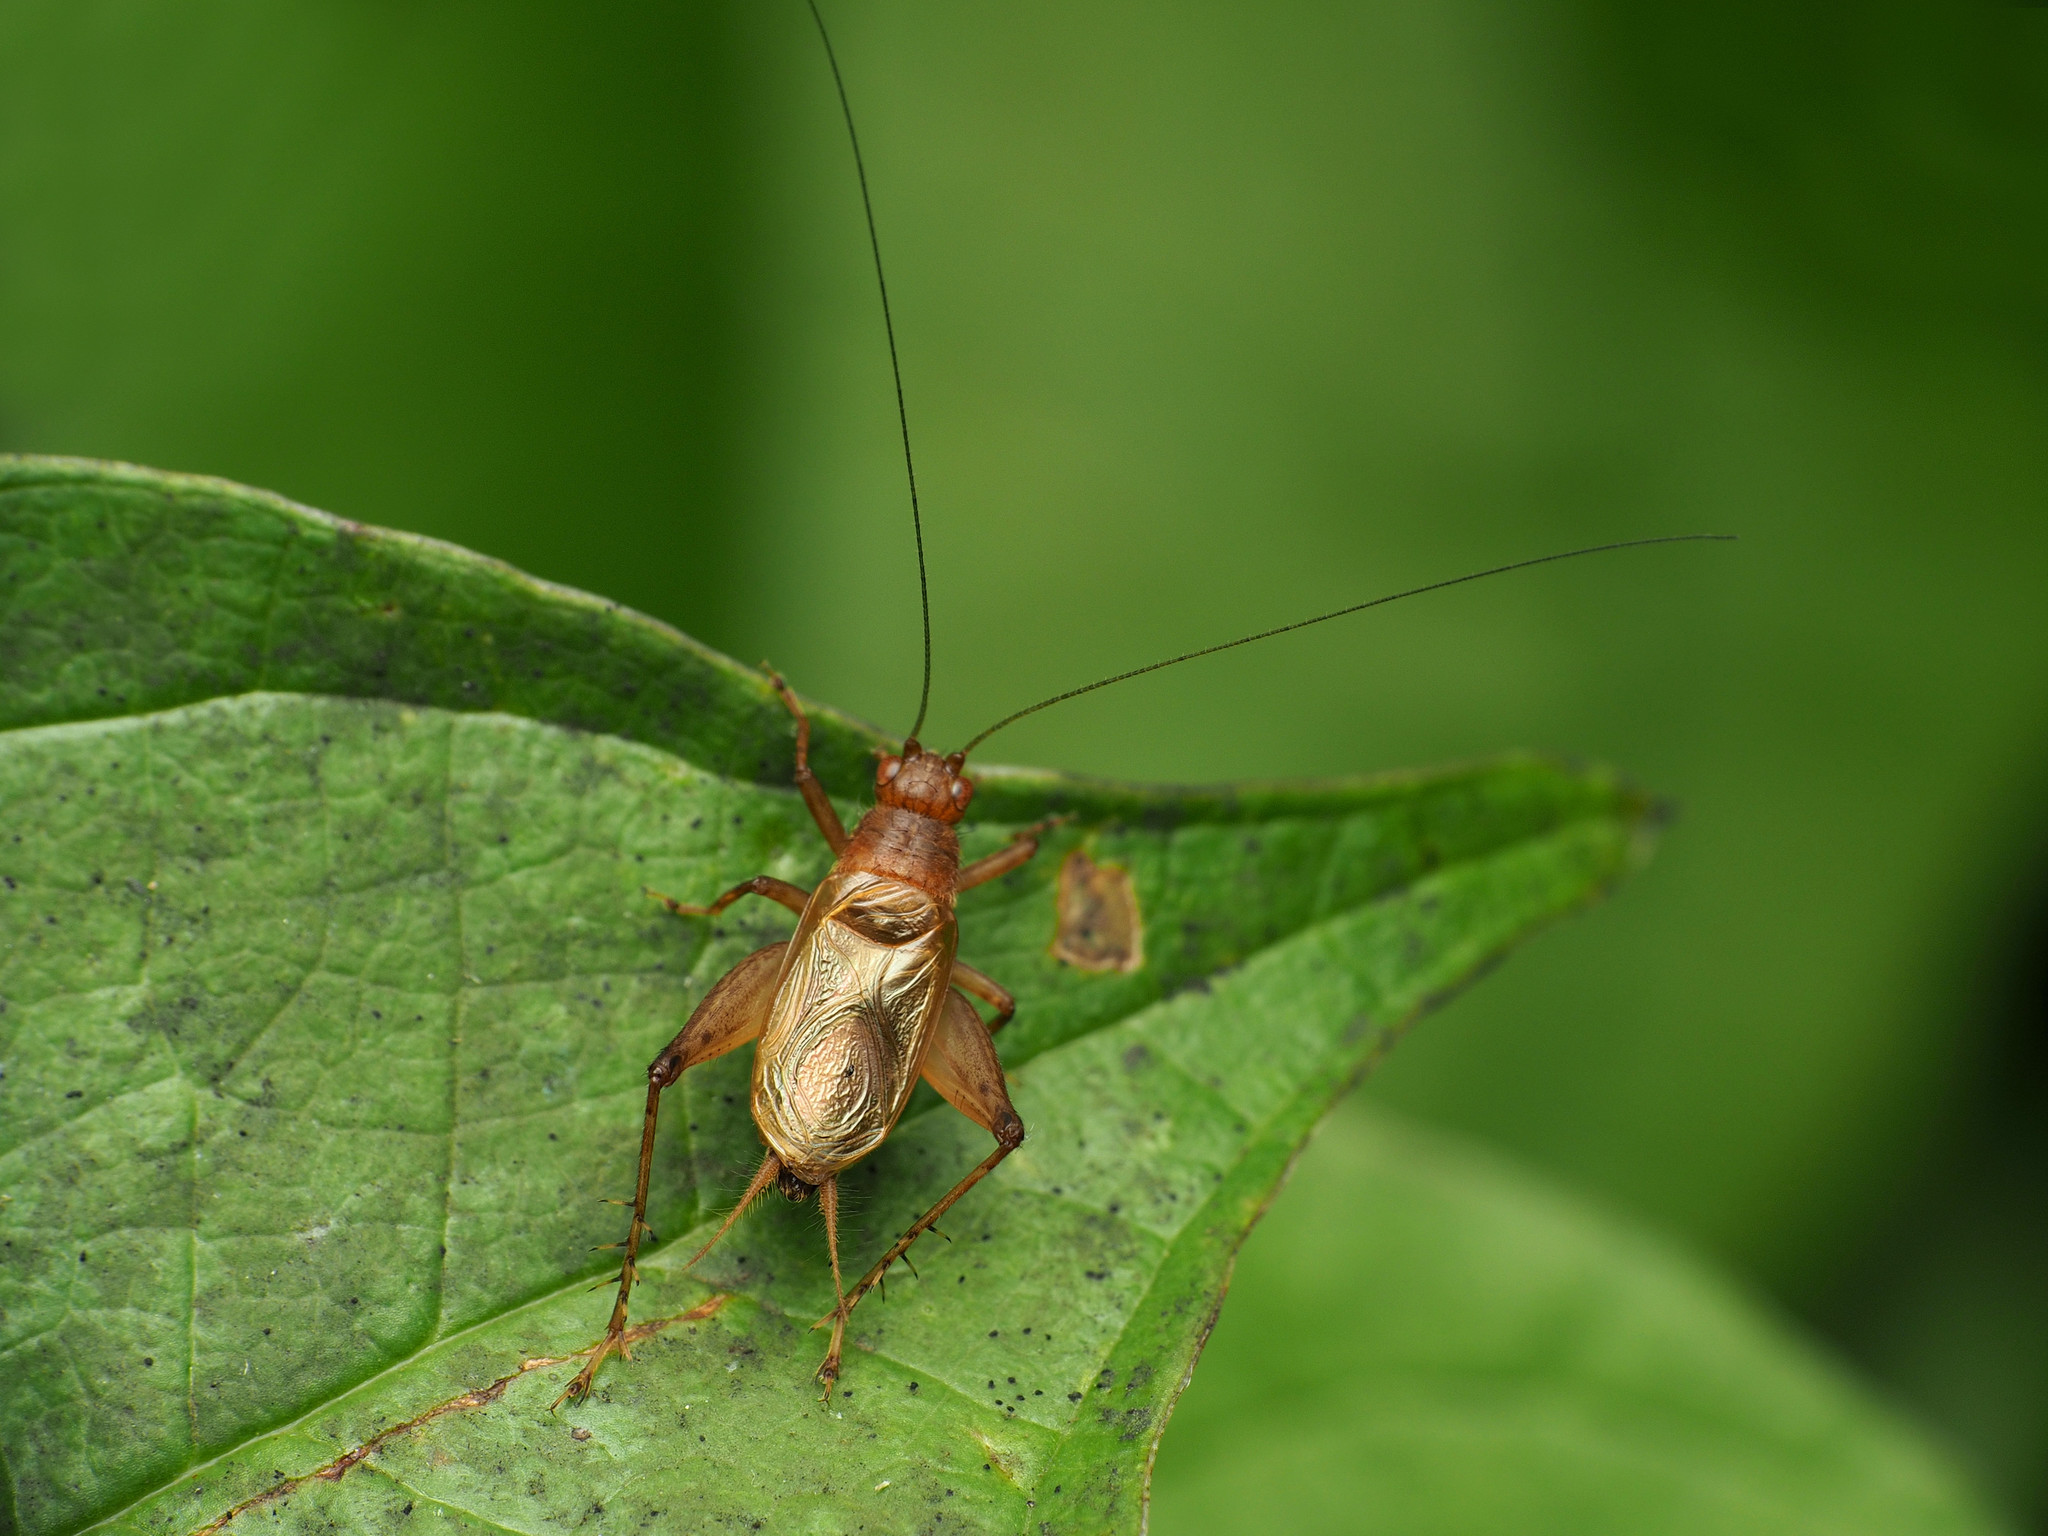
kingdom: Animalia
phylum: Arthropoda
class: Insecta
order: Orthoptera
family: Trigonidiidae
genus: Anaxipha
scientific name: Anaxipha vernalis
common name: Spring trig
